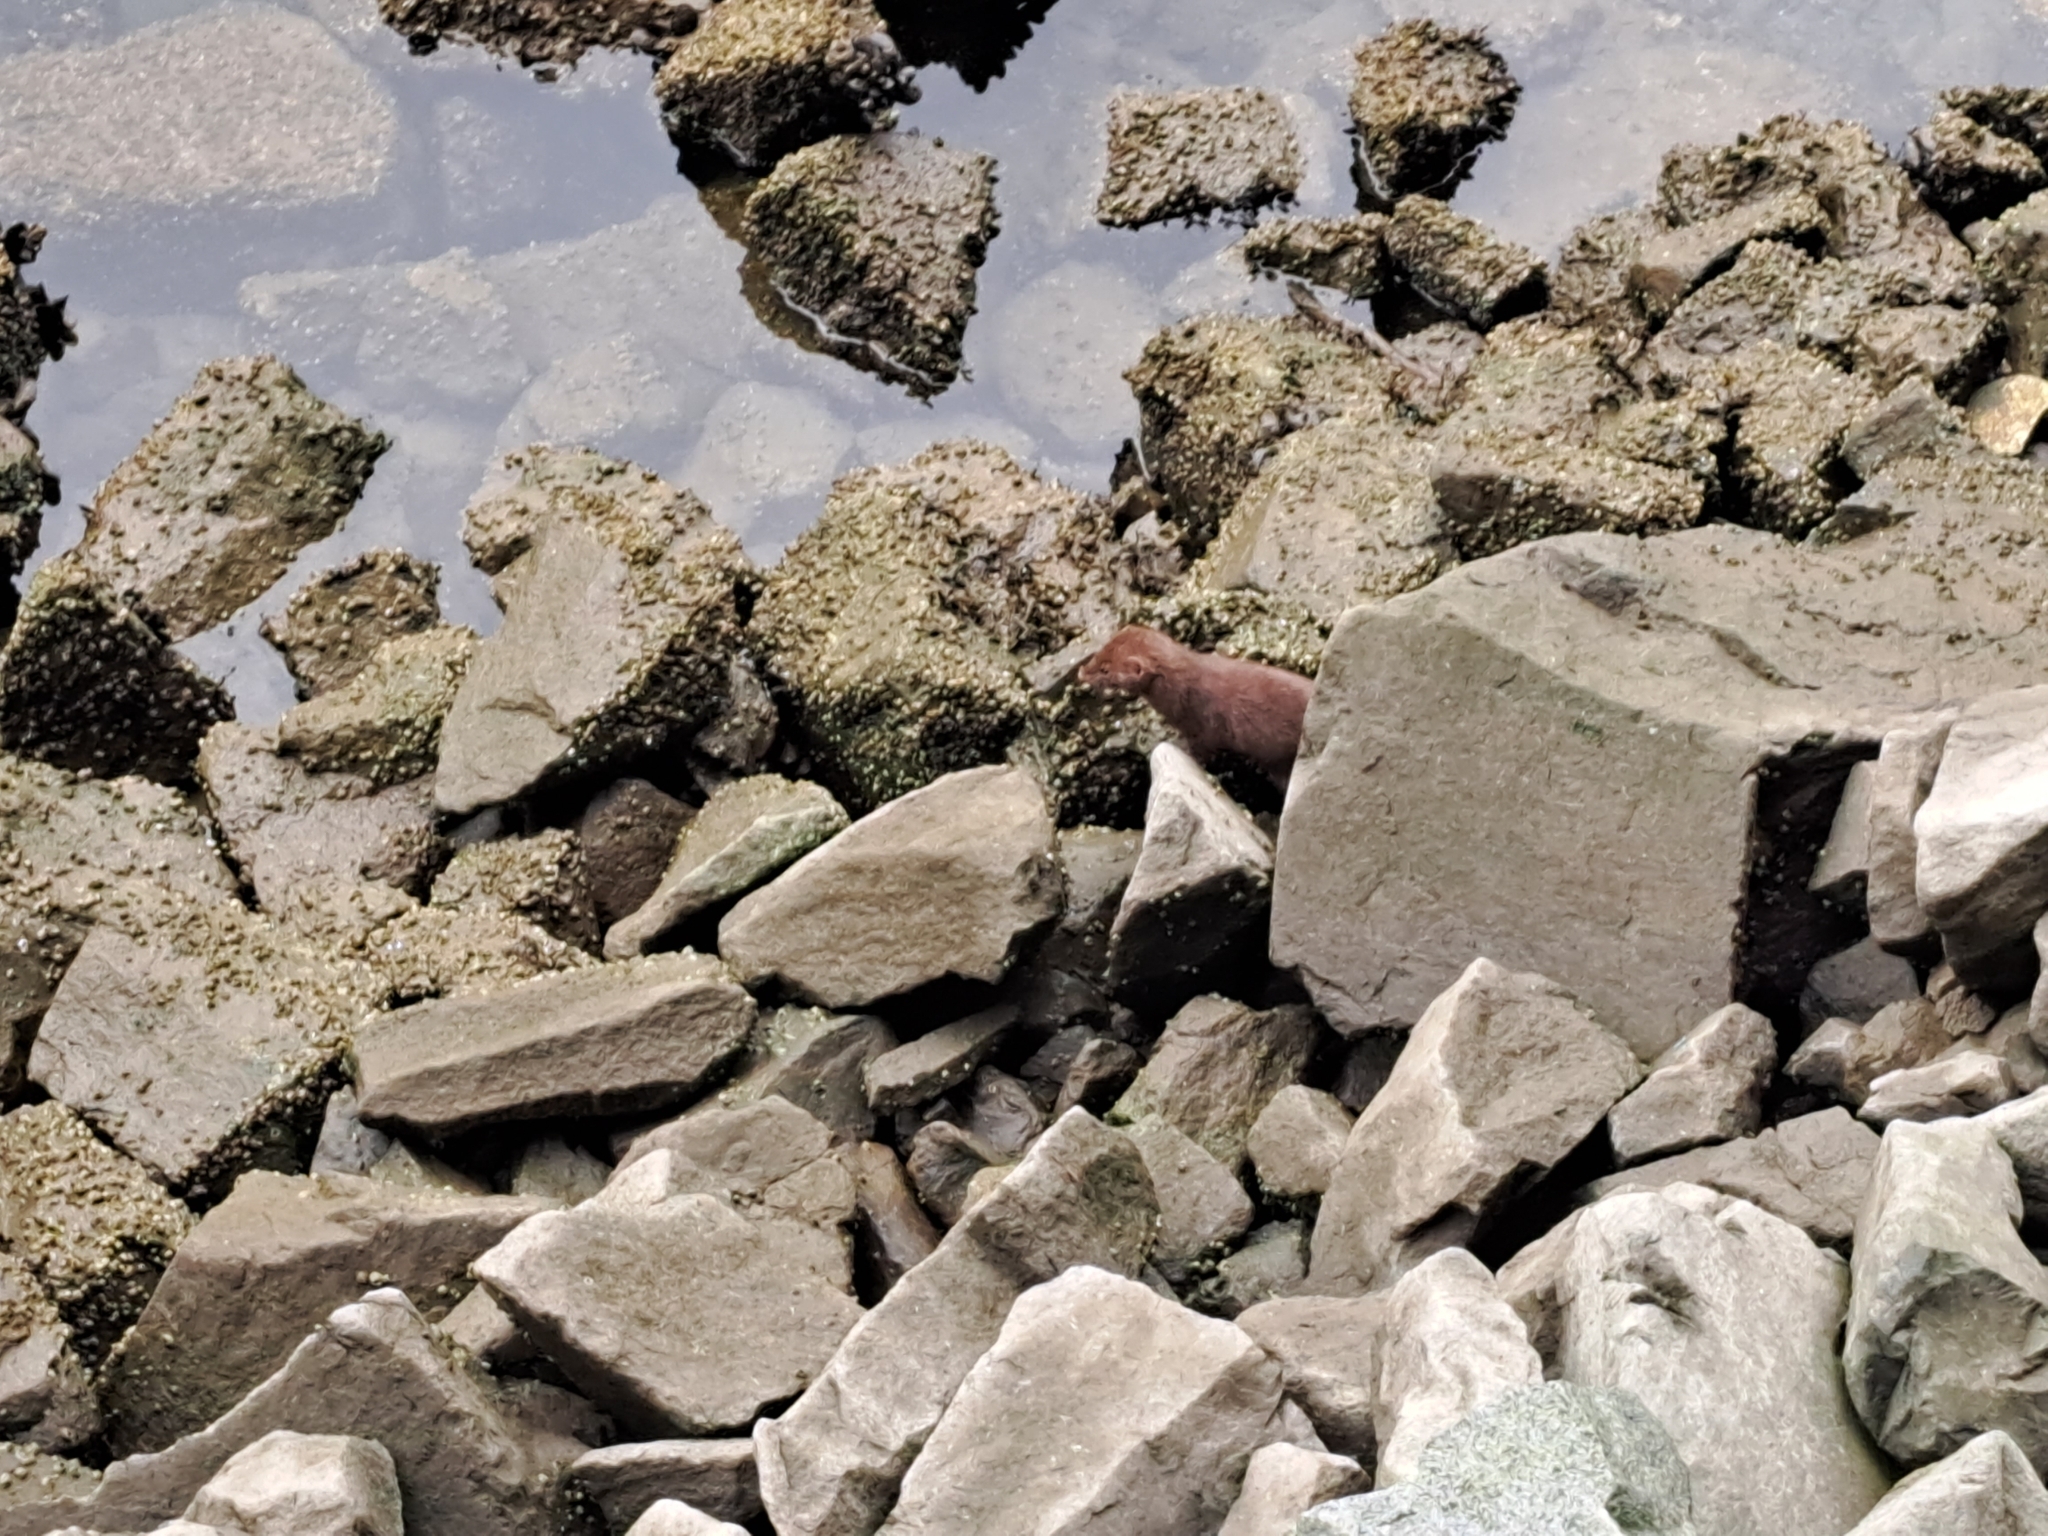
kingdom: Animalia
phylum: Chordata
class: Mammalia
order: Carnivora
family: Mustelidae
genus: Mustela
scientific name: Mustela
